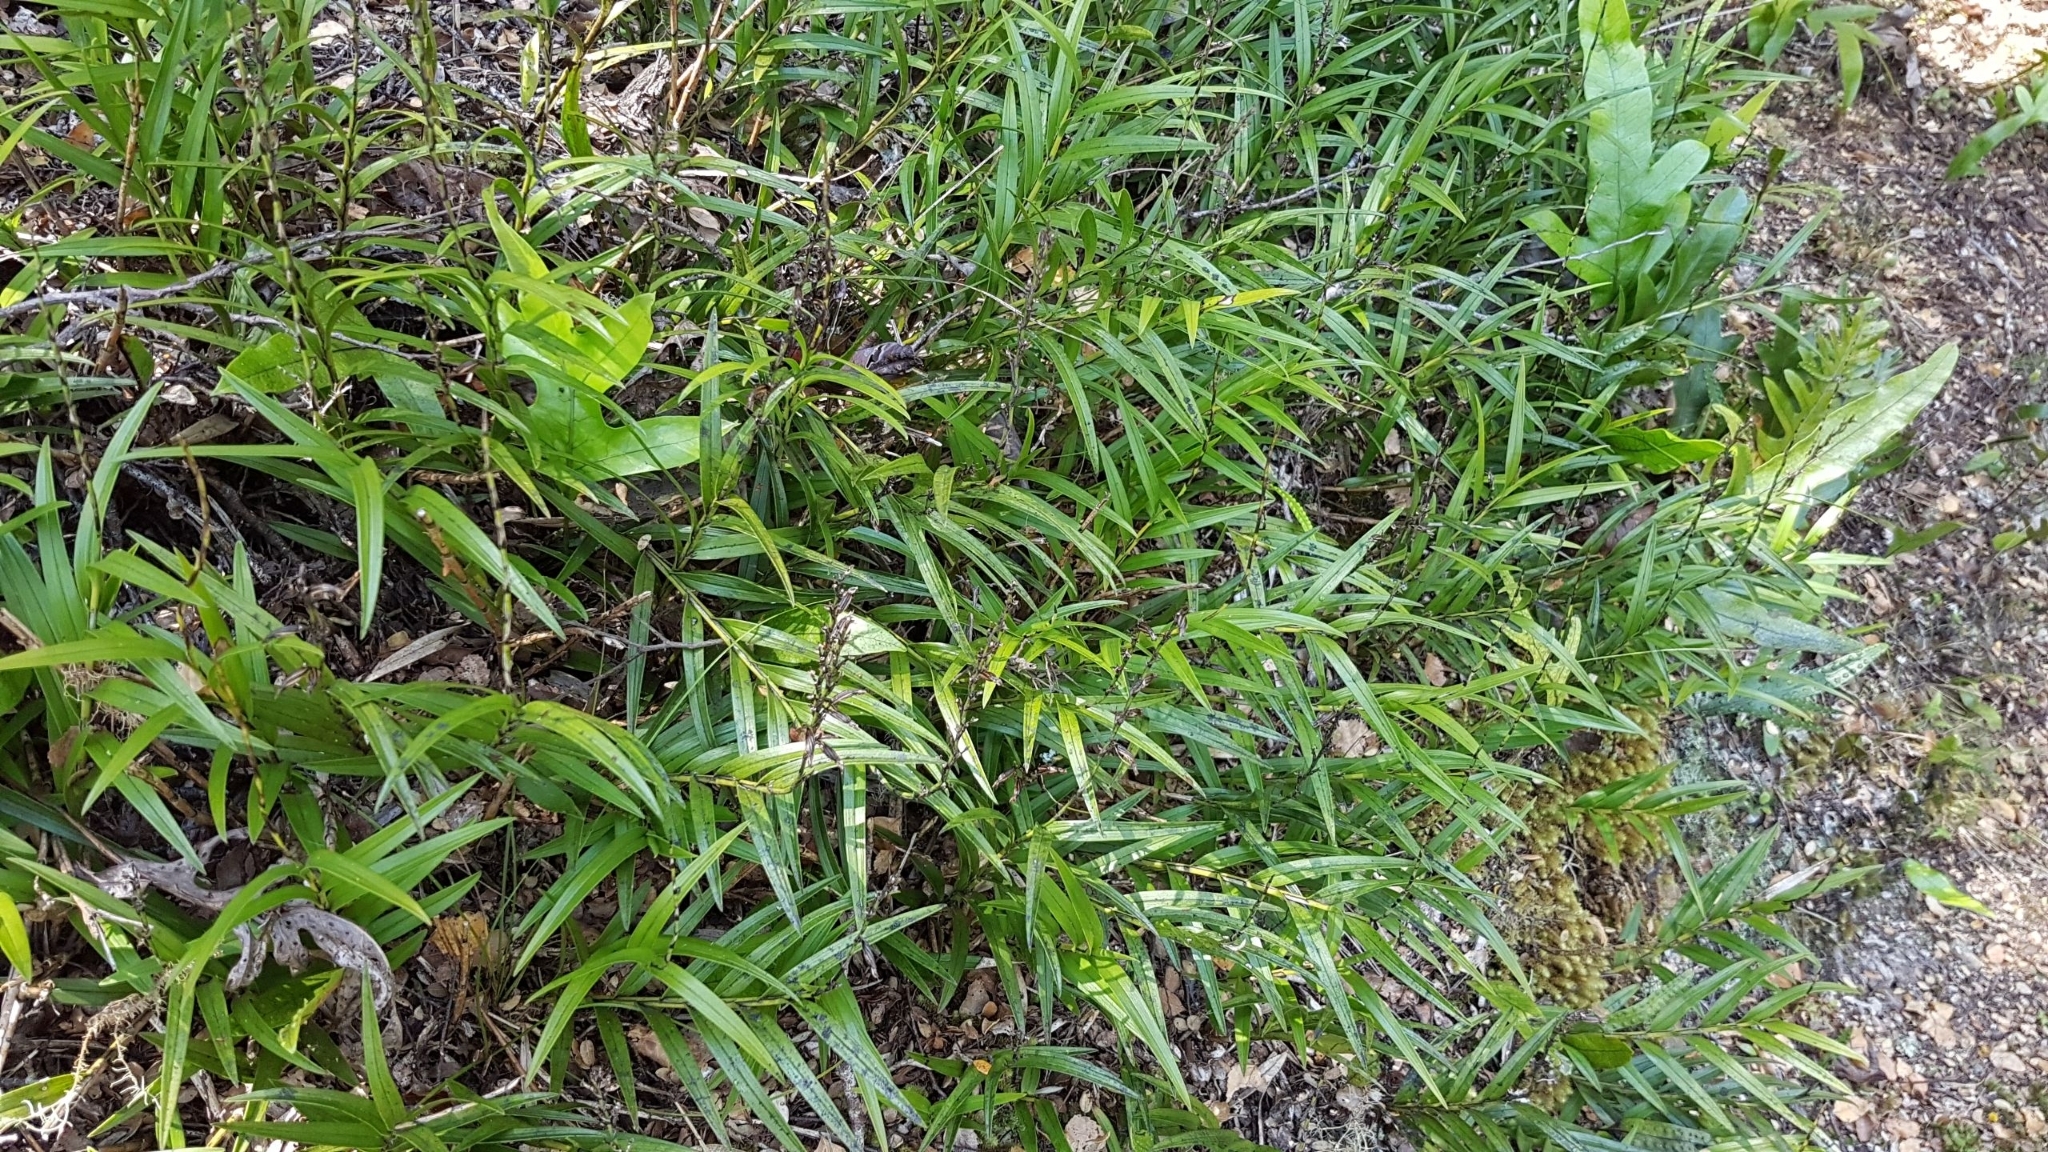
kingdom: Plantae
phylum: Tracheophyta
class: Liliopsida
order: Asparagales
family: Orchidaceae
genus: Earina
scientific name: Earina autumnalis
